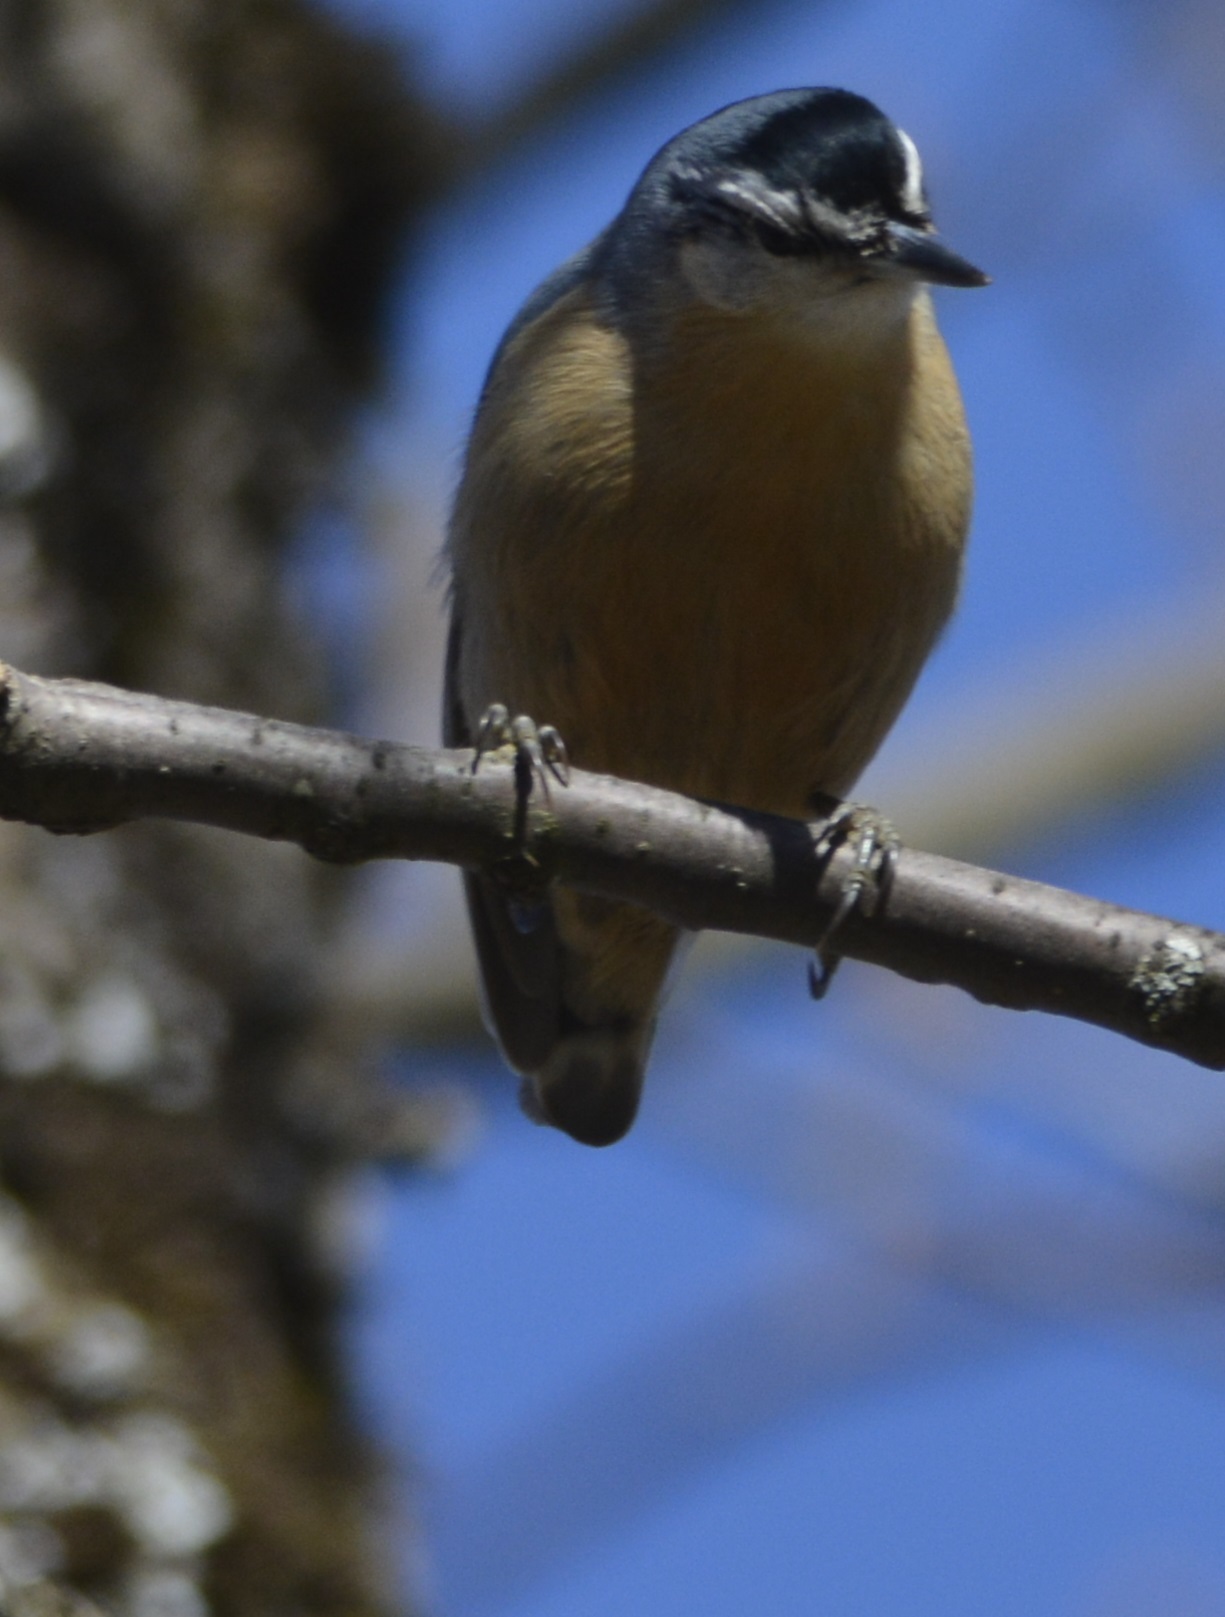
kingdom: Animalia
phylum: Chordata
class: Aves
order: Passeriformes
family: Sittidae
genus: Sitta
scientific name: Sitta ledanti
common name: Algerian nuthatch
